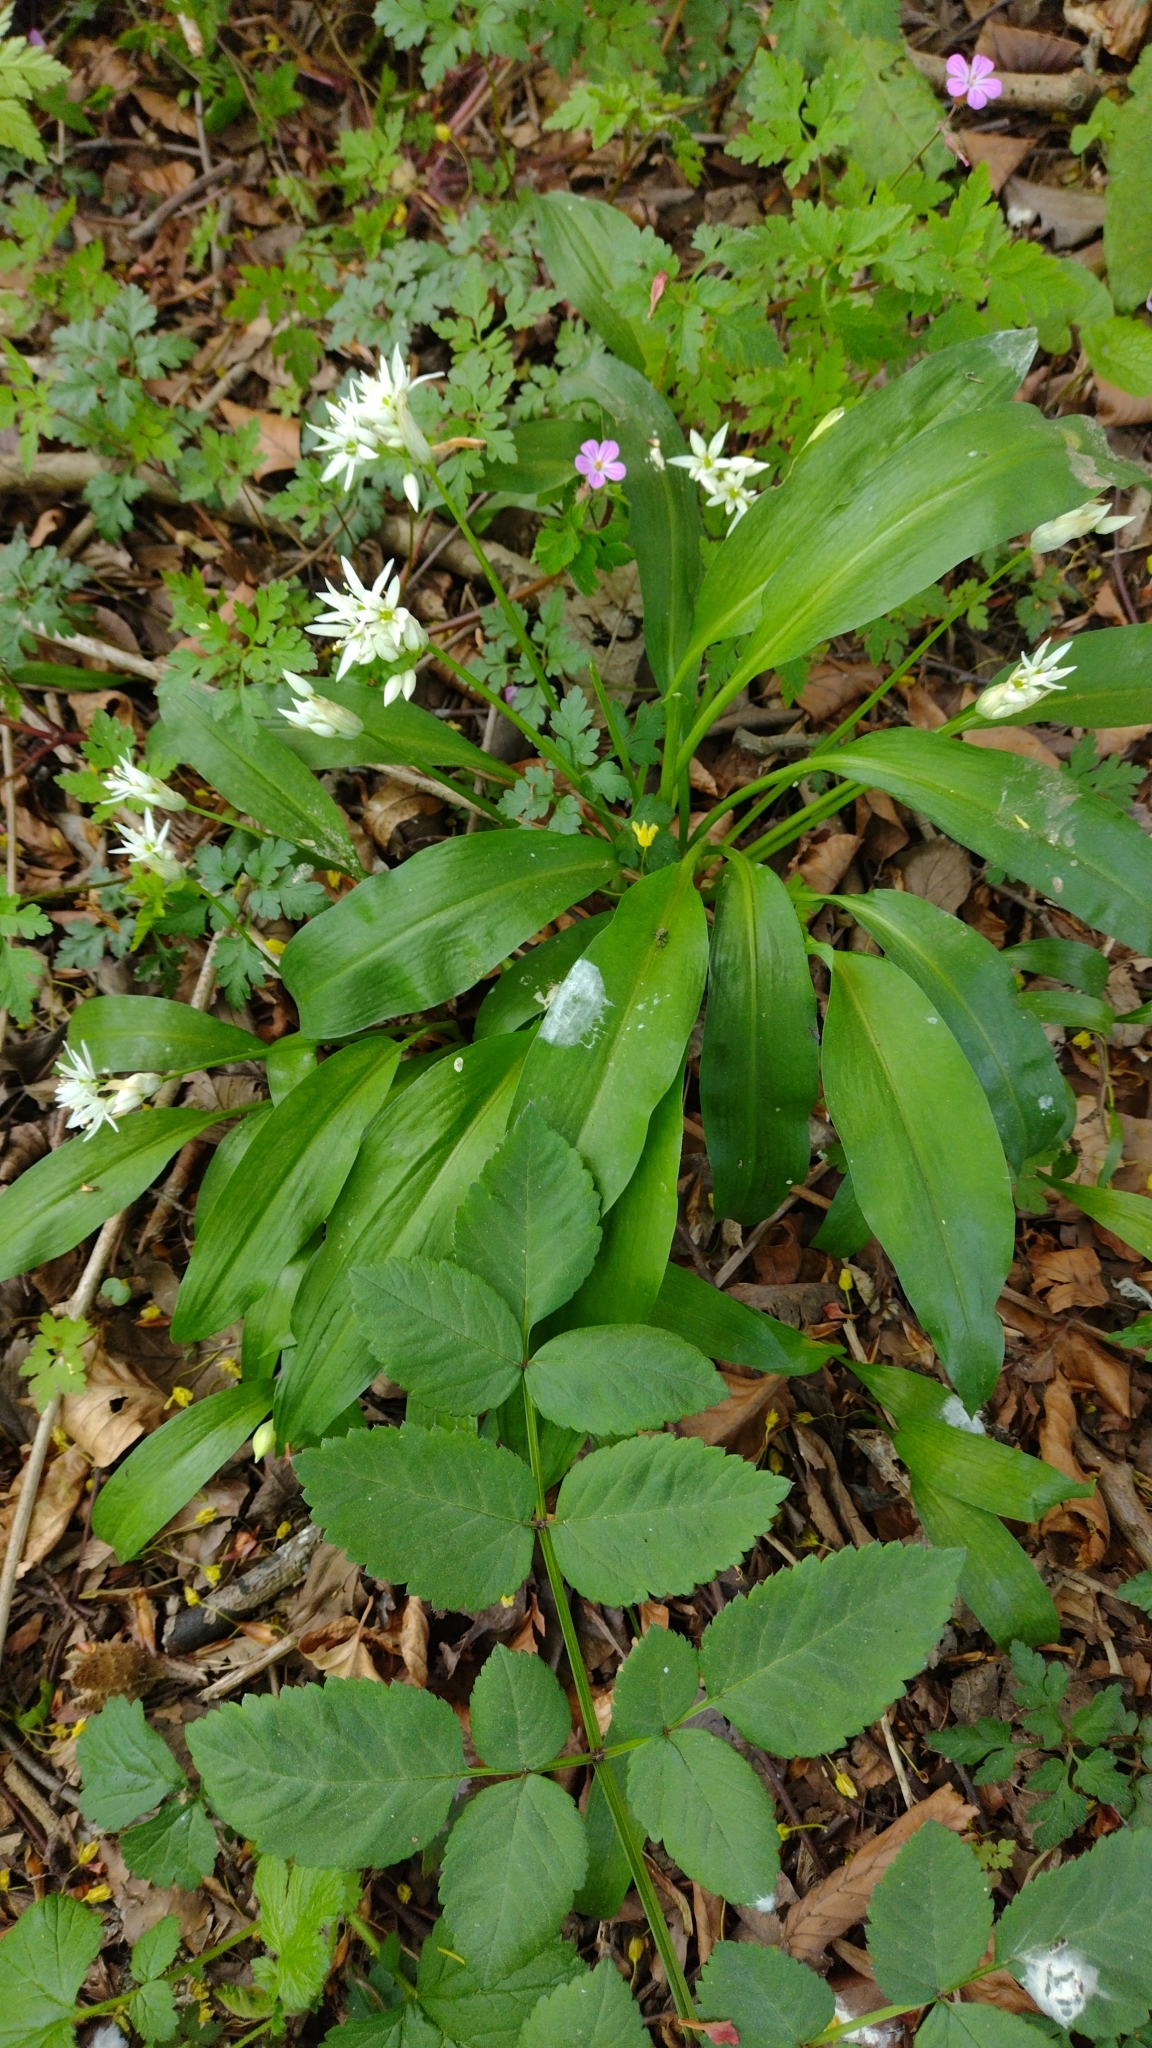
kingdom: Plantae
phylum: Tracheophyta
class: Liliopsida
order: Asparagales
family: Amaryllidaceae
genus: Allium
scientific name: Allium ursinum
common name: Ramsons
